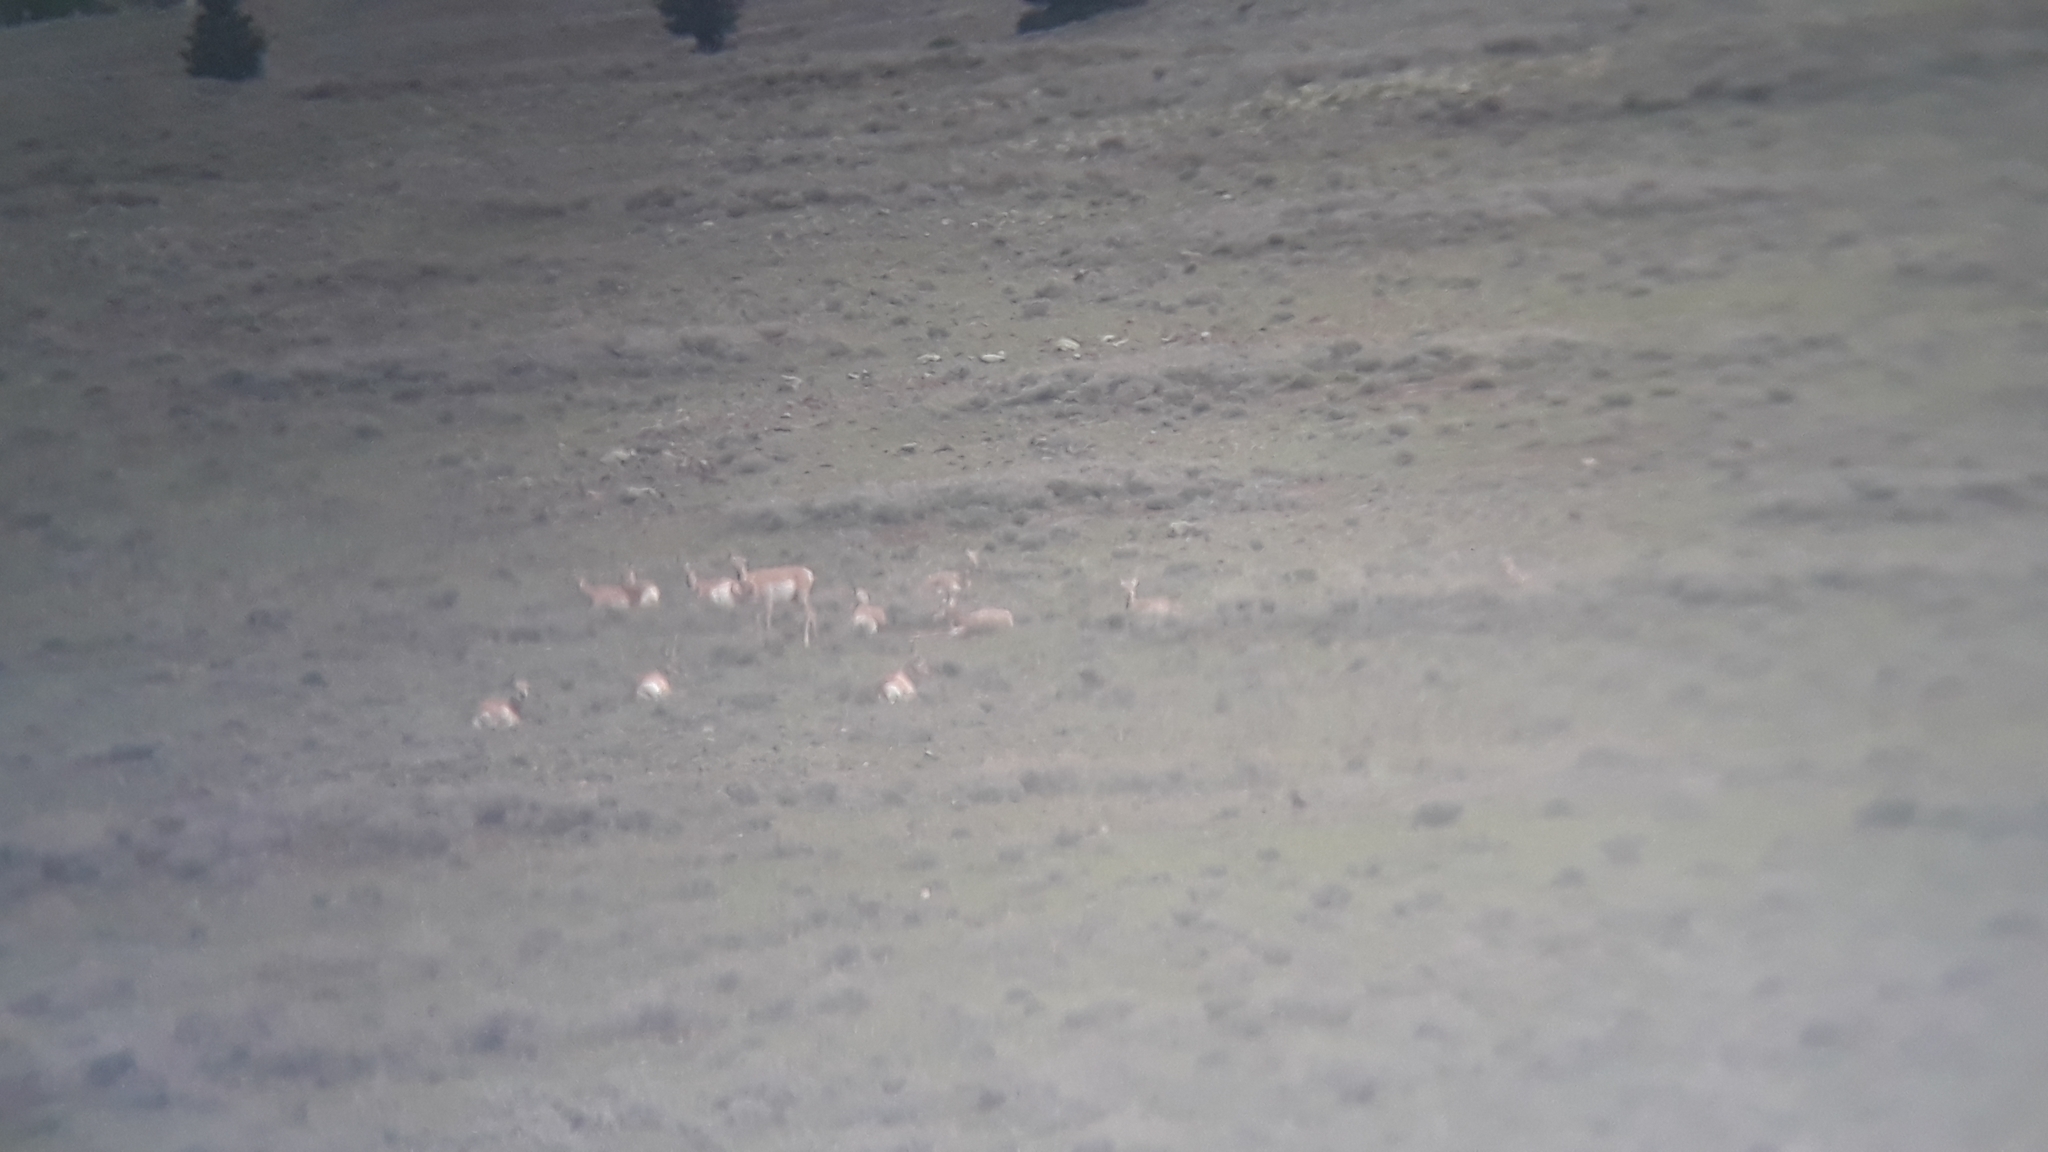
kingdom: Animalia
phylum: Chordata
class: Mammalia
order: Artiodactyla
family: Antilocapridae
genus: Antilocapra
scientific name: Antilocapra americana
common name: Pronghorn
